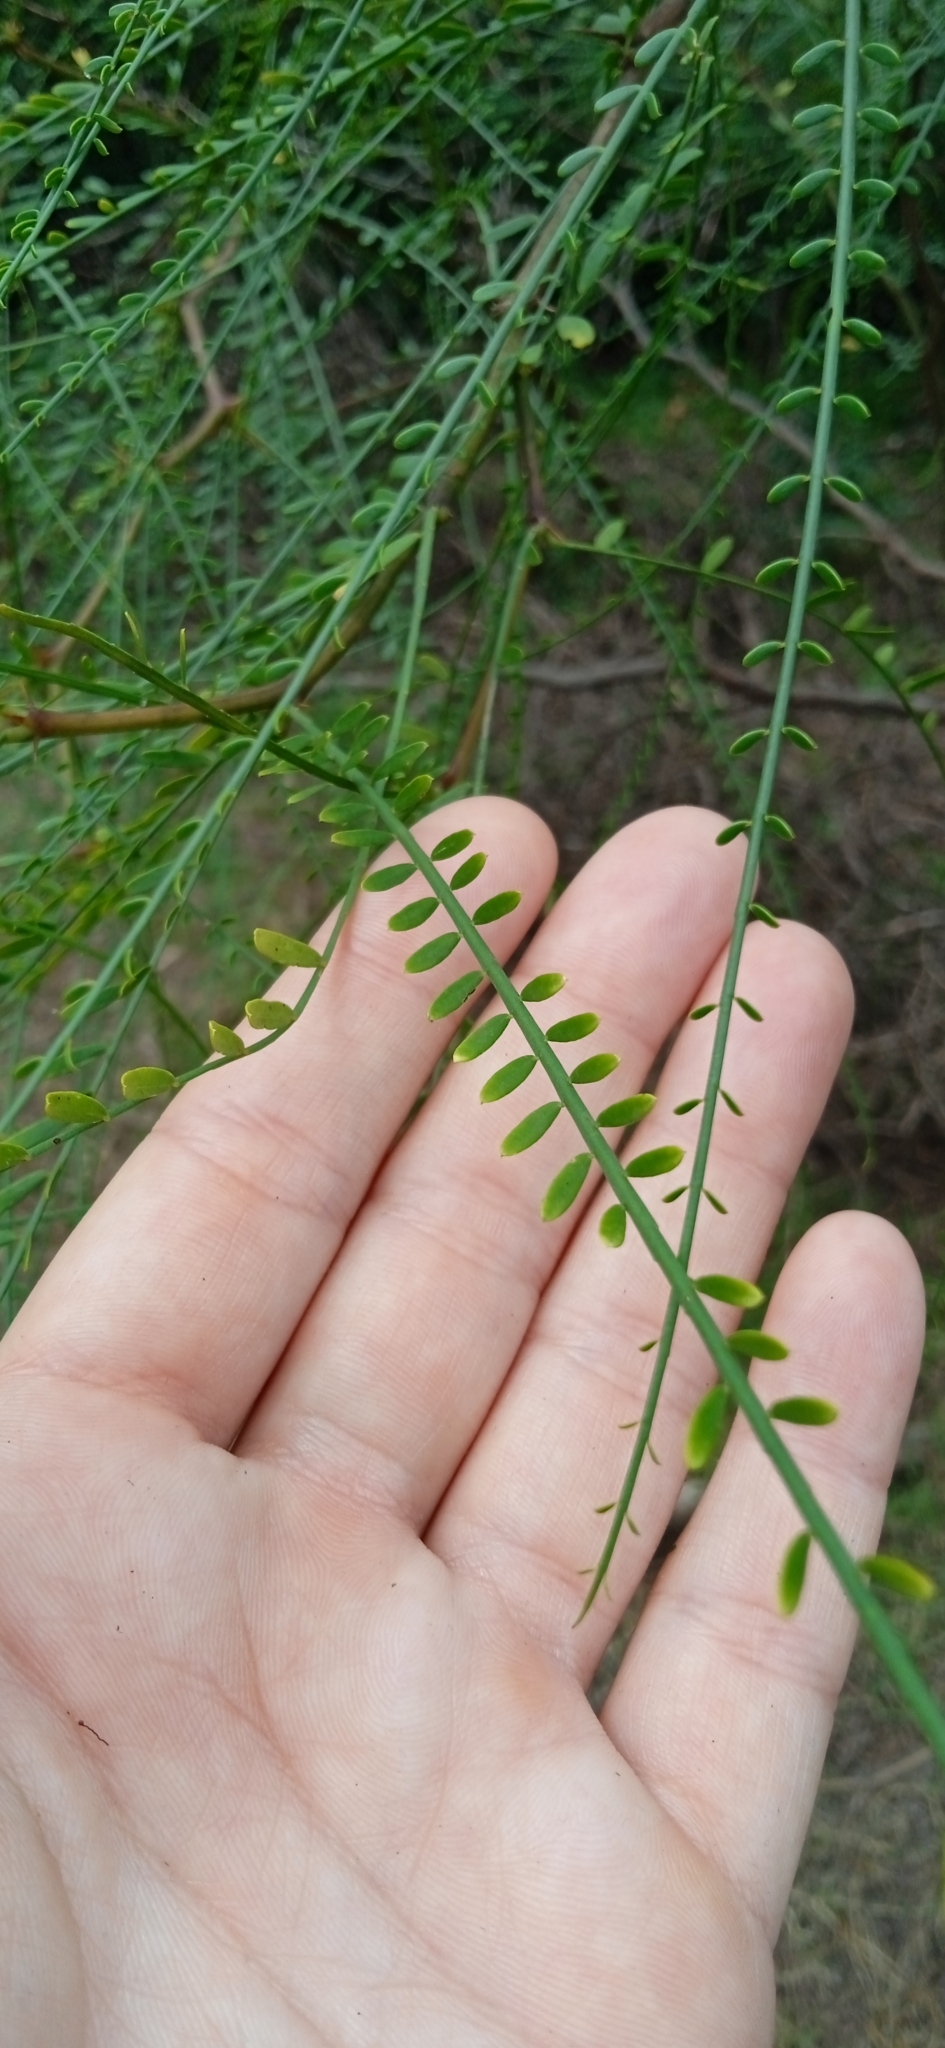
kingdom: Plantae
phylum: Tracheophyta
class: Magnoliopsida
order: Fabales
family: Fabaceae
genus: Parkinsonia
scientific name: Parkinsonia aculeata
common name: Jerusalem thorn
